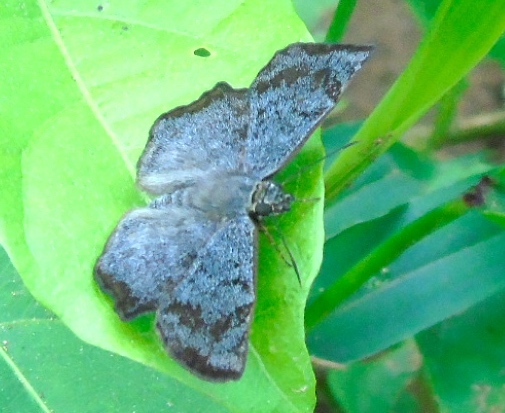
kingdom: Animalia
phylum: Arthropoda
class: Insecta
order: Lepidoptera
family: Hesperiidae
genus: Antigonus
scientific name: Antigonus erosus
